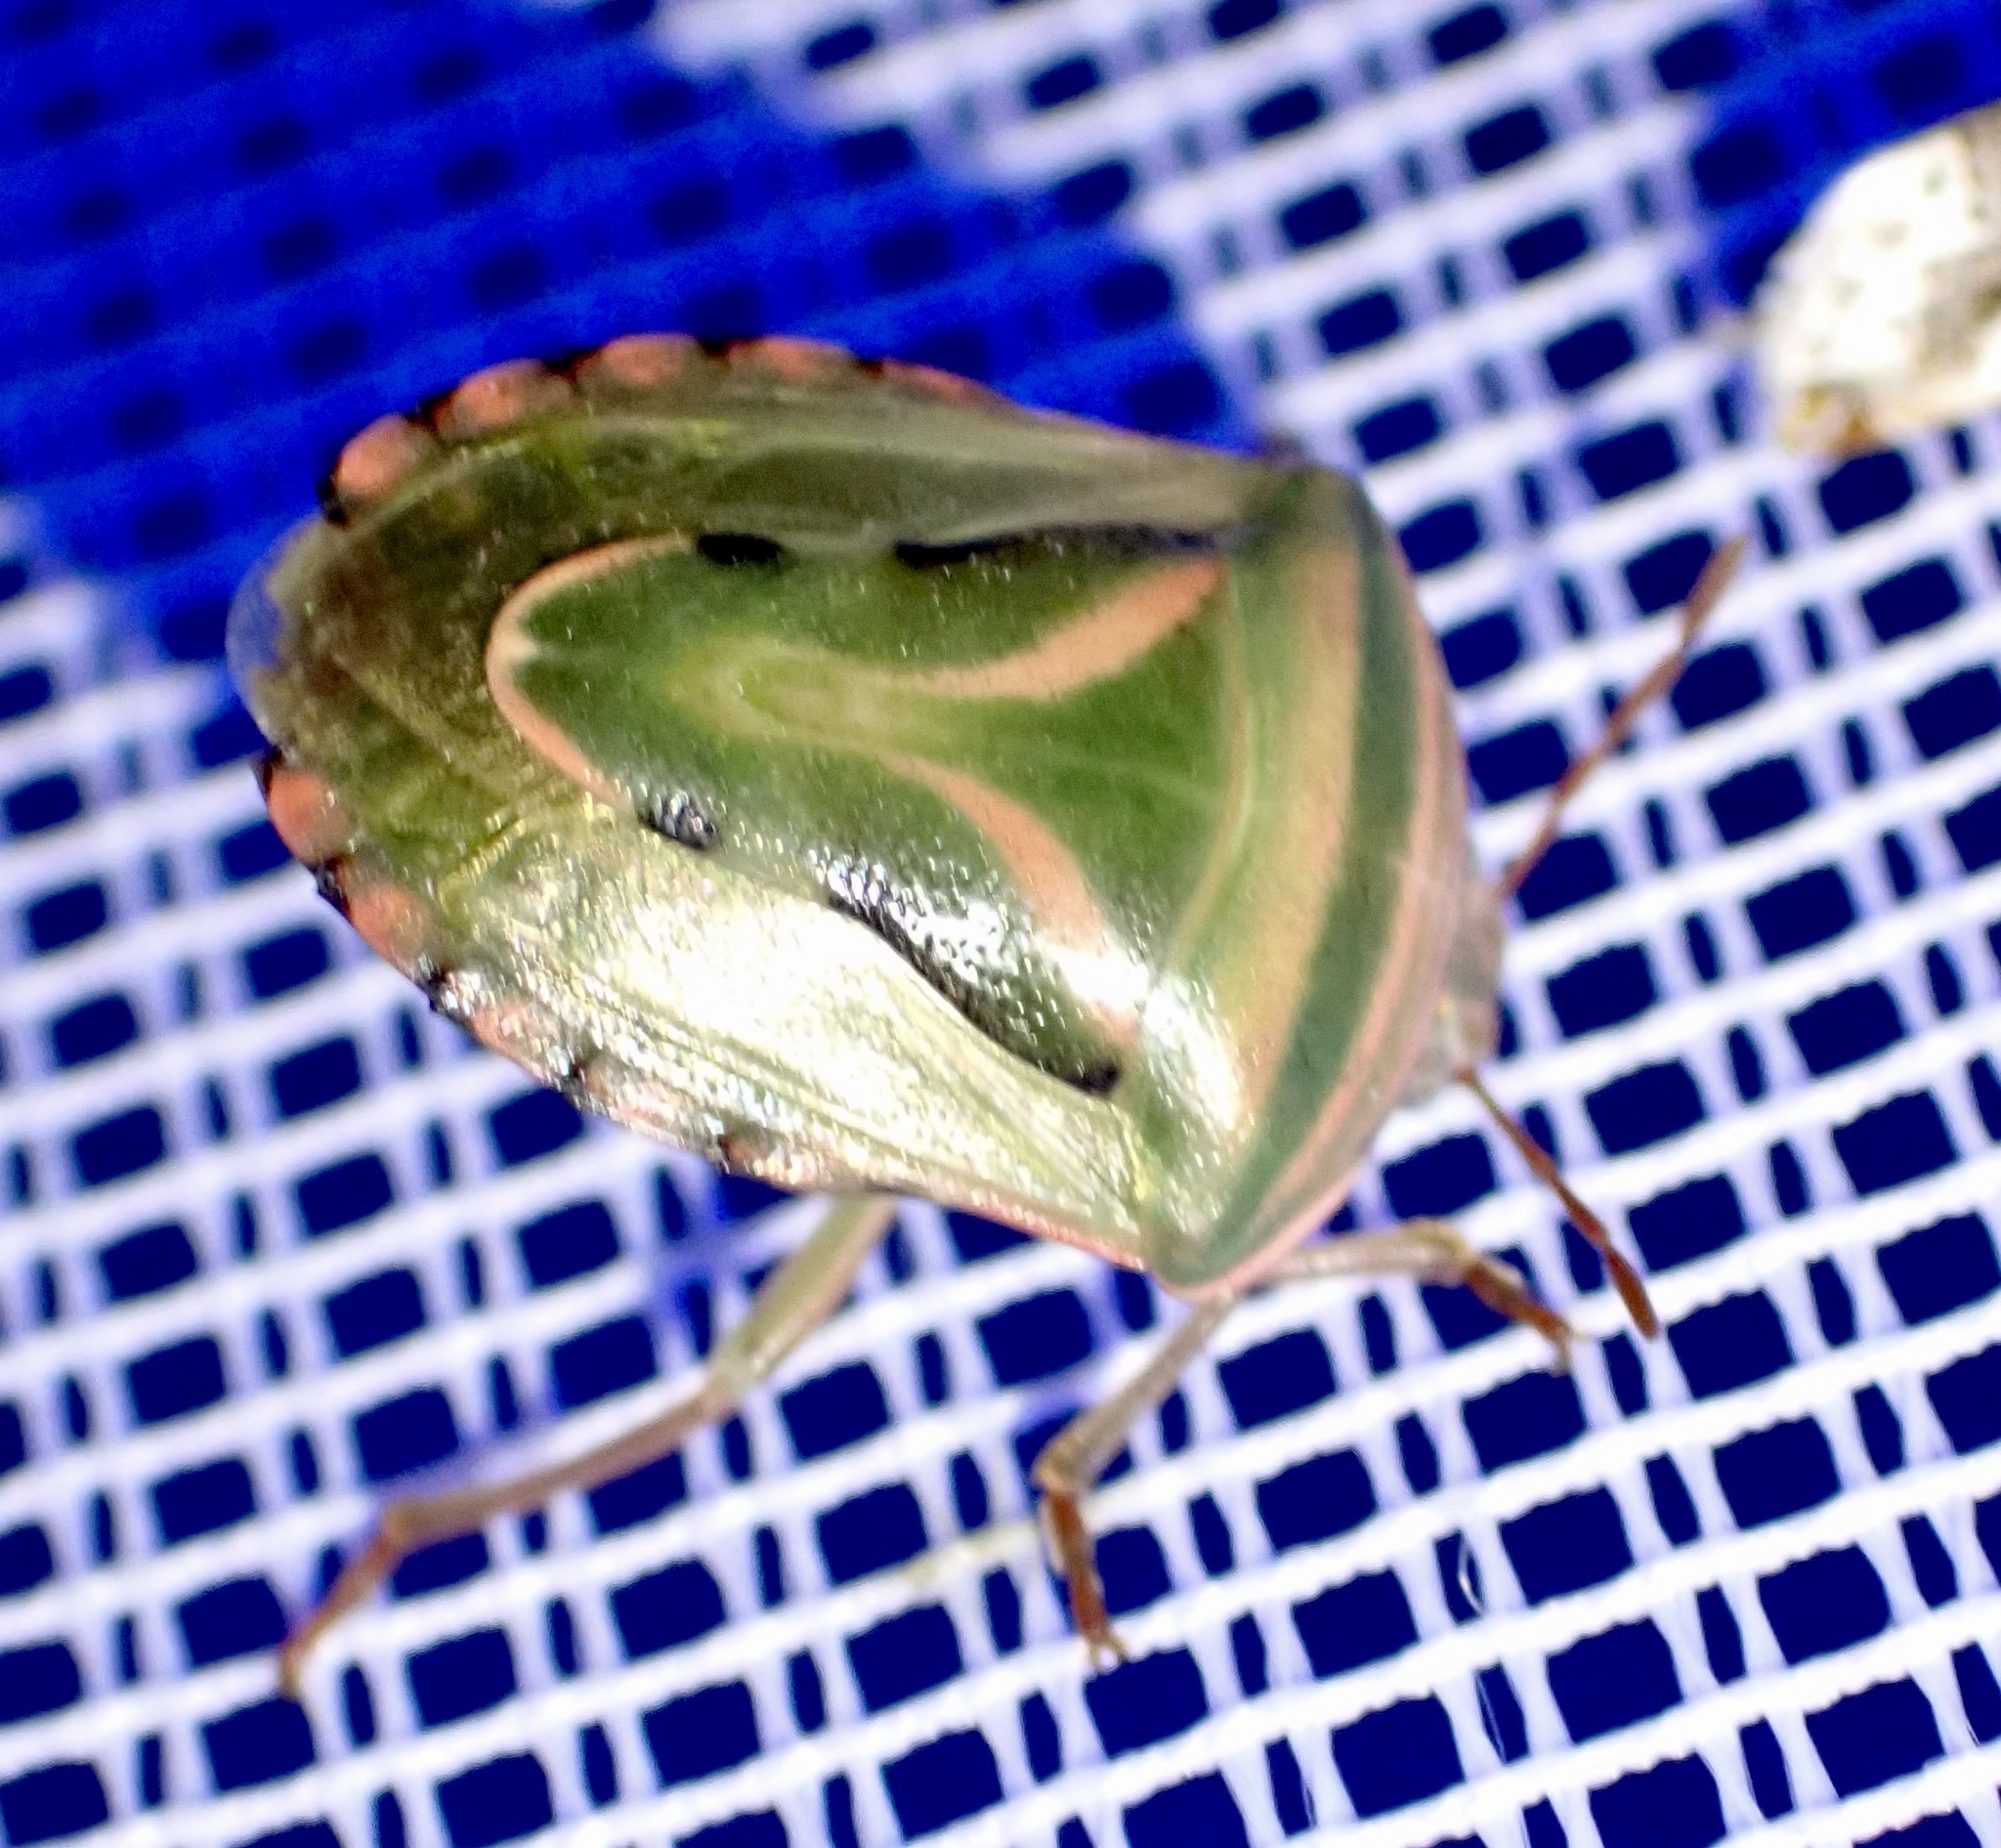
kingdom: Animalia
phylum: Arthropoda
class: Insecta
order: Hemiptera
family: Acanthosomatidae
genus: Lindbergicoris
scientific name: Lindbergicoris Platacantha lutea
